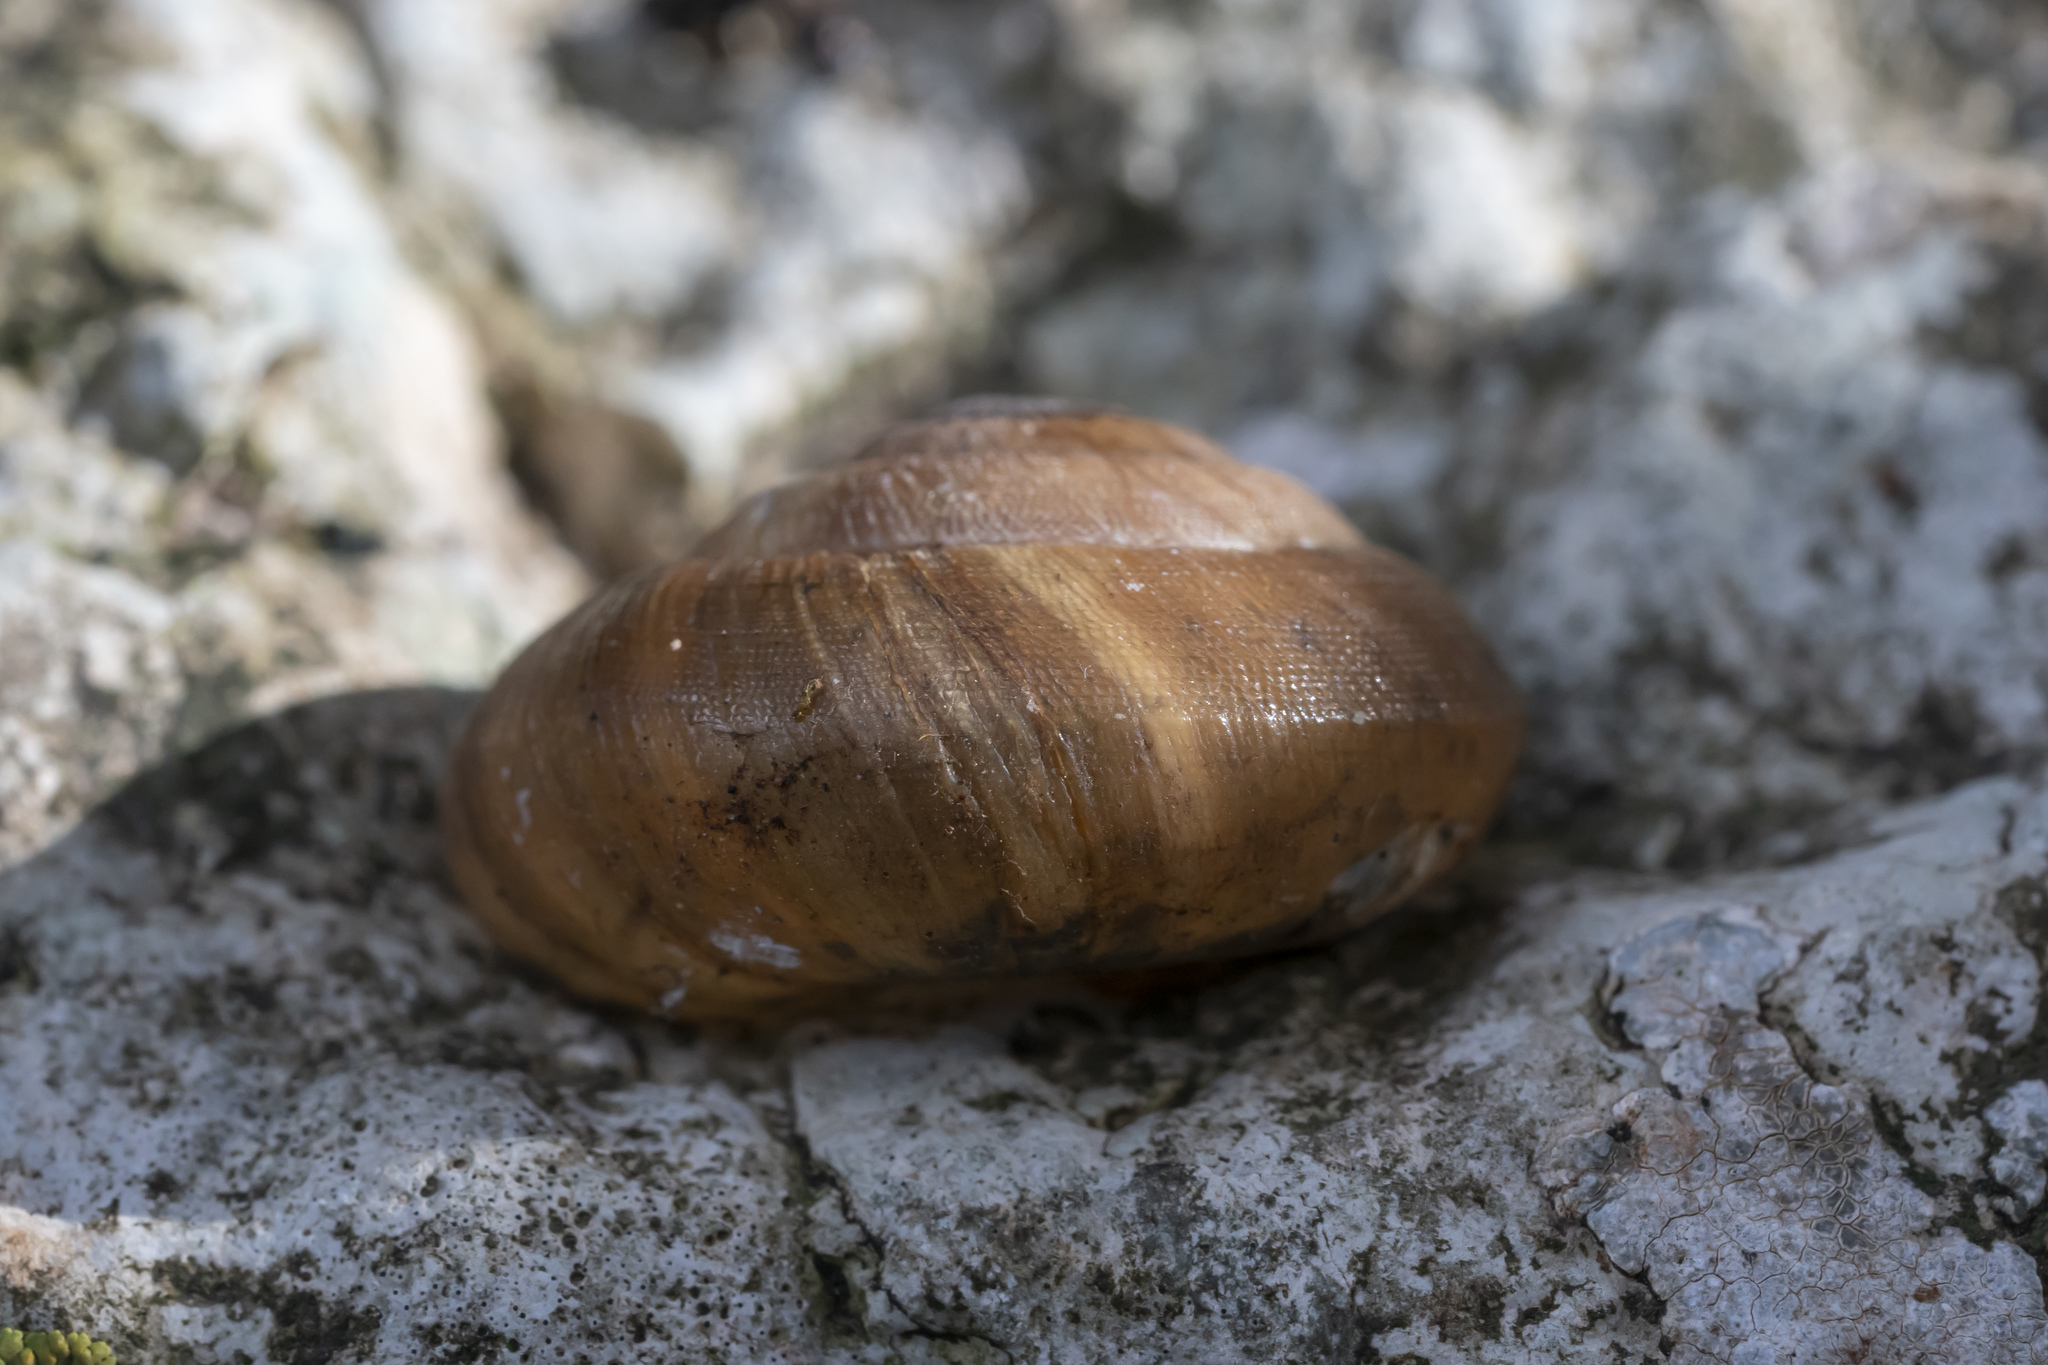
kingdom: Animalia
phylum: Mollusca
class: Gastropoda
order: Stylommatophora
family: Zonitidae
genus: Zonites
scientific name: Zonites festai
